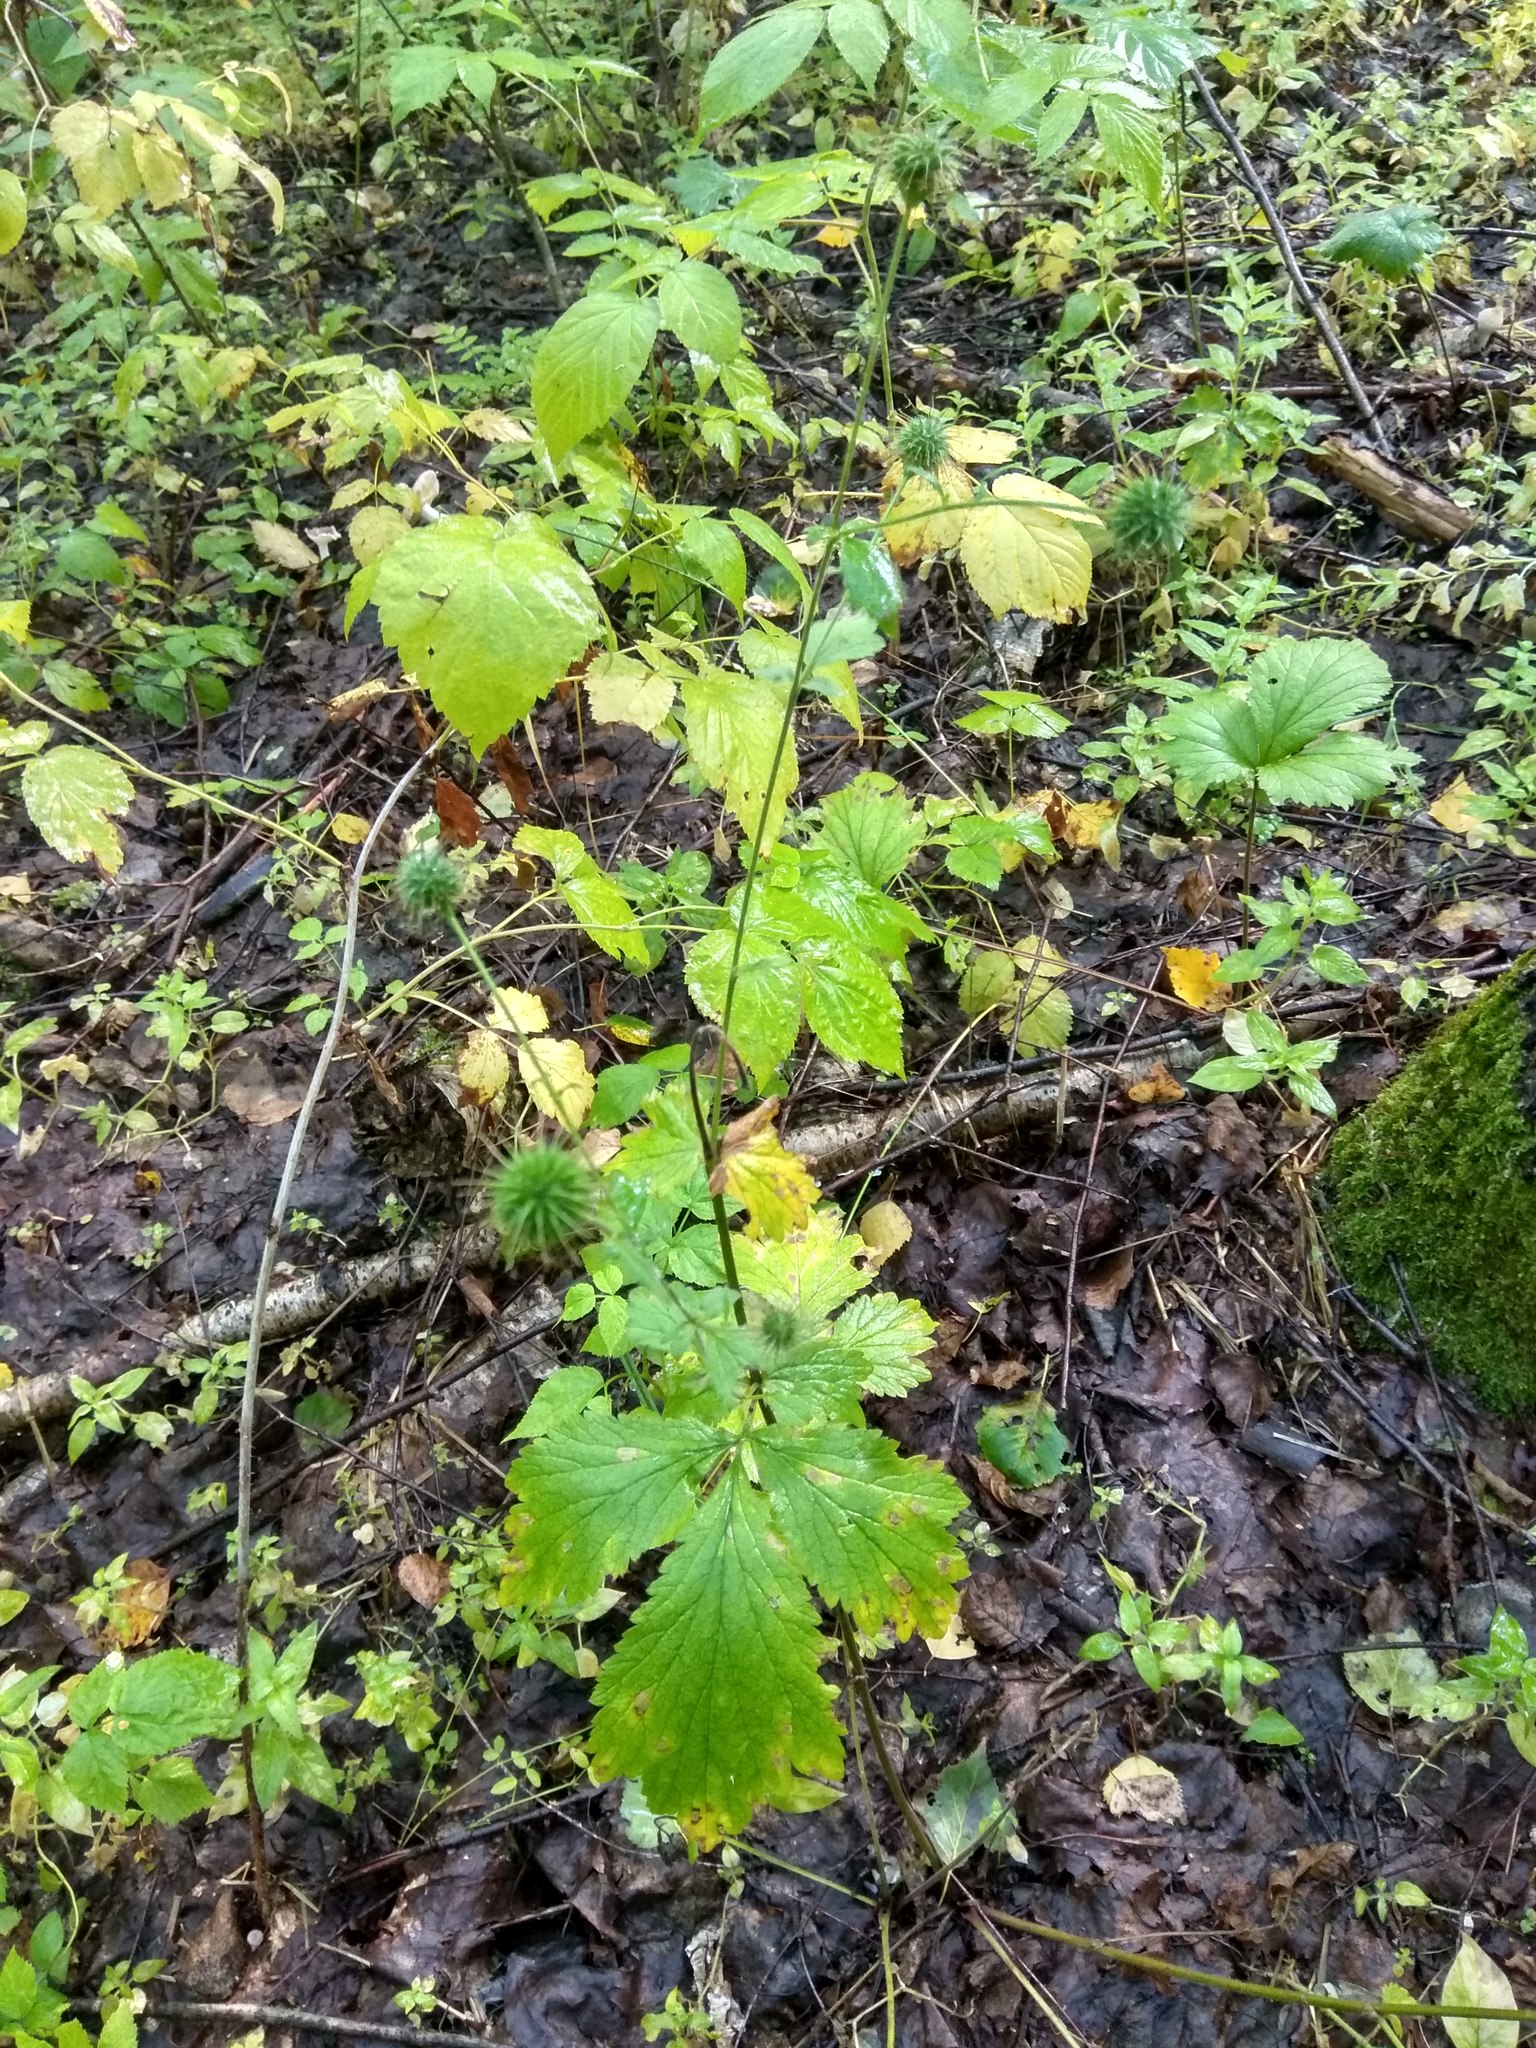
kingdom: Plantae
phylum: Tracheophyta
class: Magnoliopsida
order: Rosales
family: Rosaceae
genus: Geum
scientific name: Geum urbanum
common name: Wood avens
